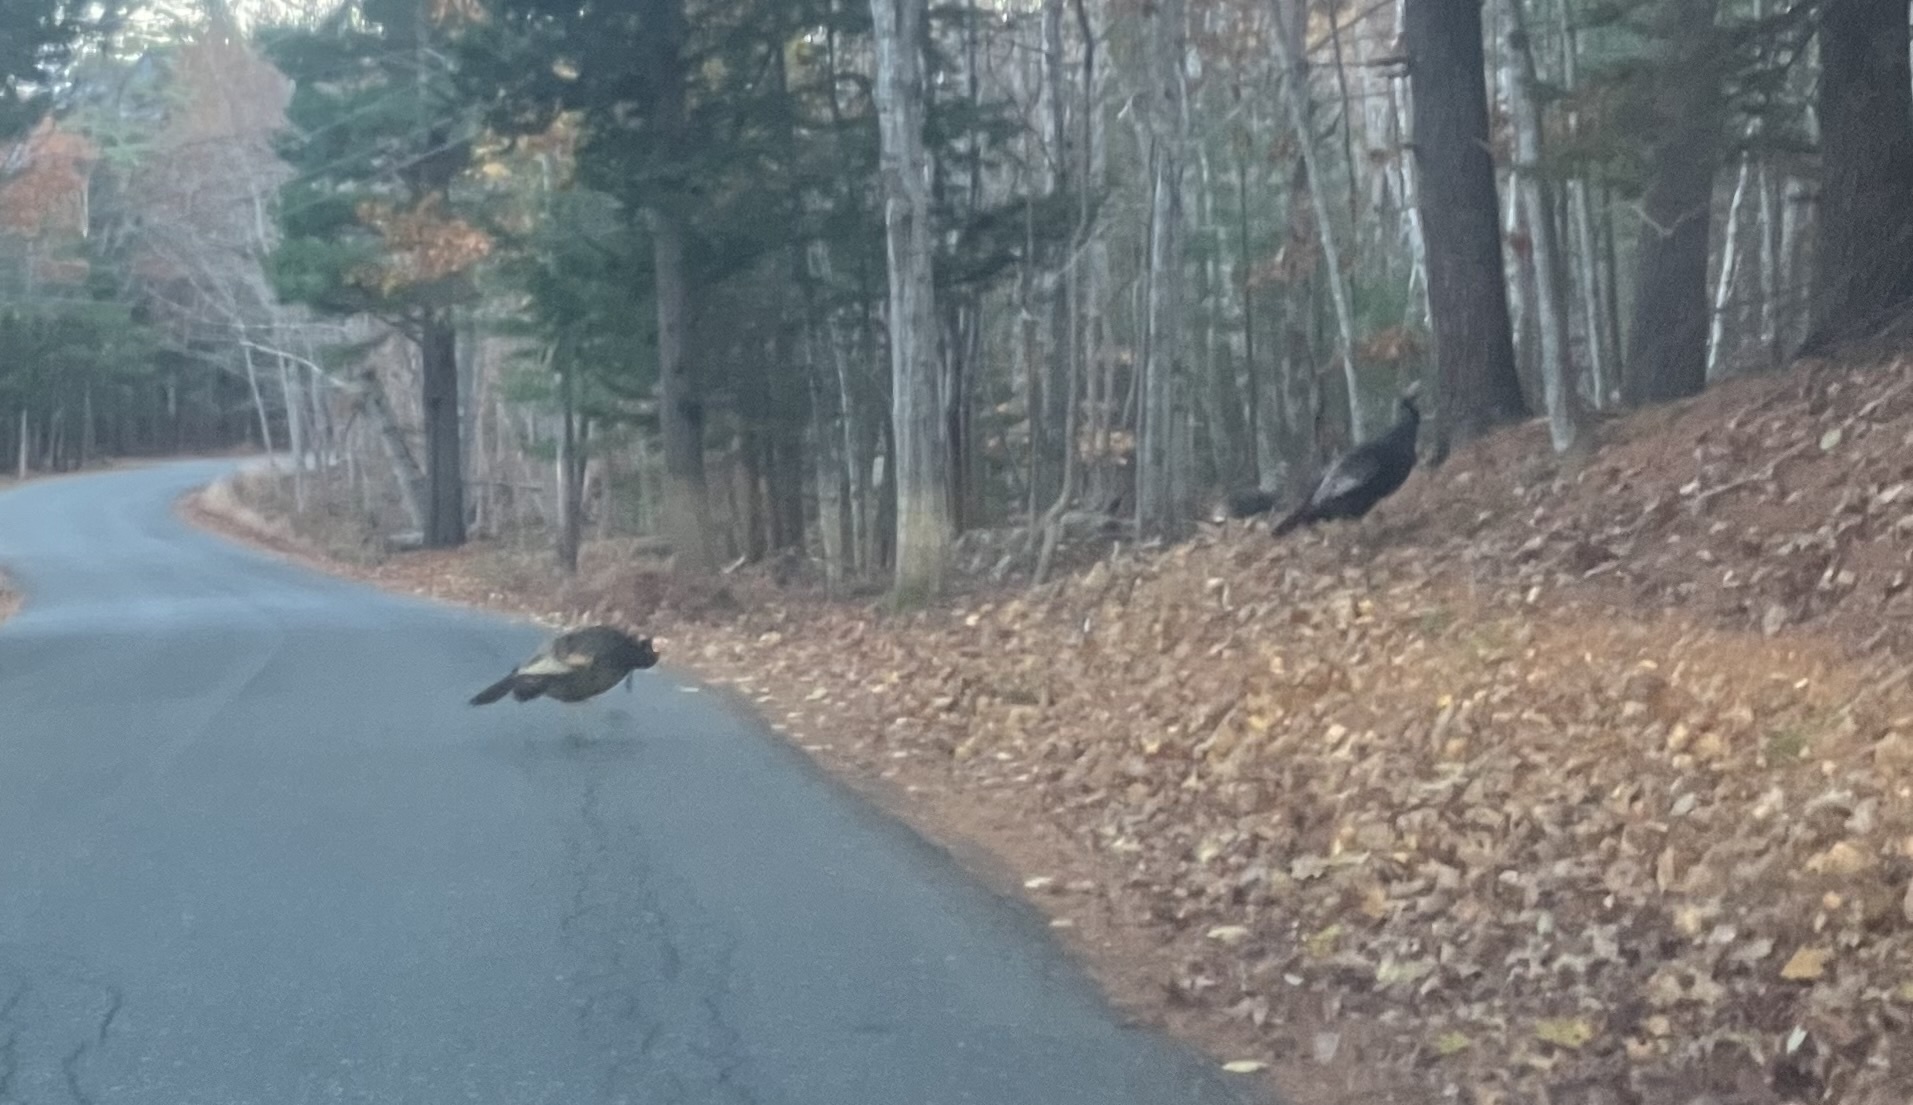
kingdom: Animalia
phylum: Chordata
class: Aves
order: Galliformes
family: Phasianidae
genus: Meleagris
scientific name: Meleagris gallopavo
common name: Wild turkey
